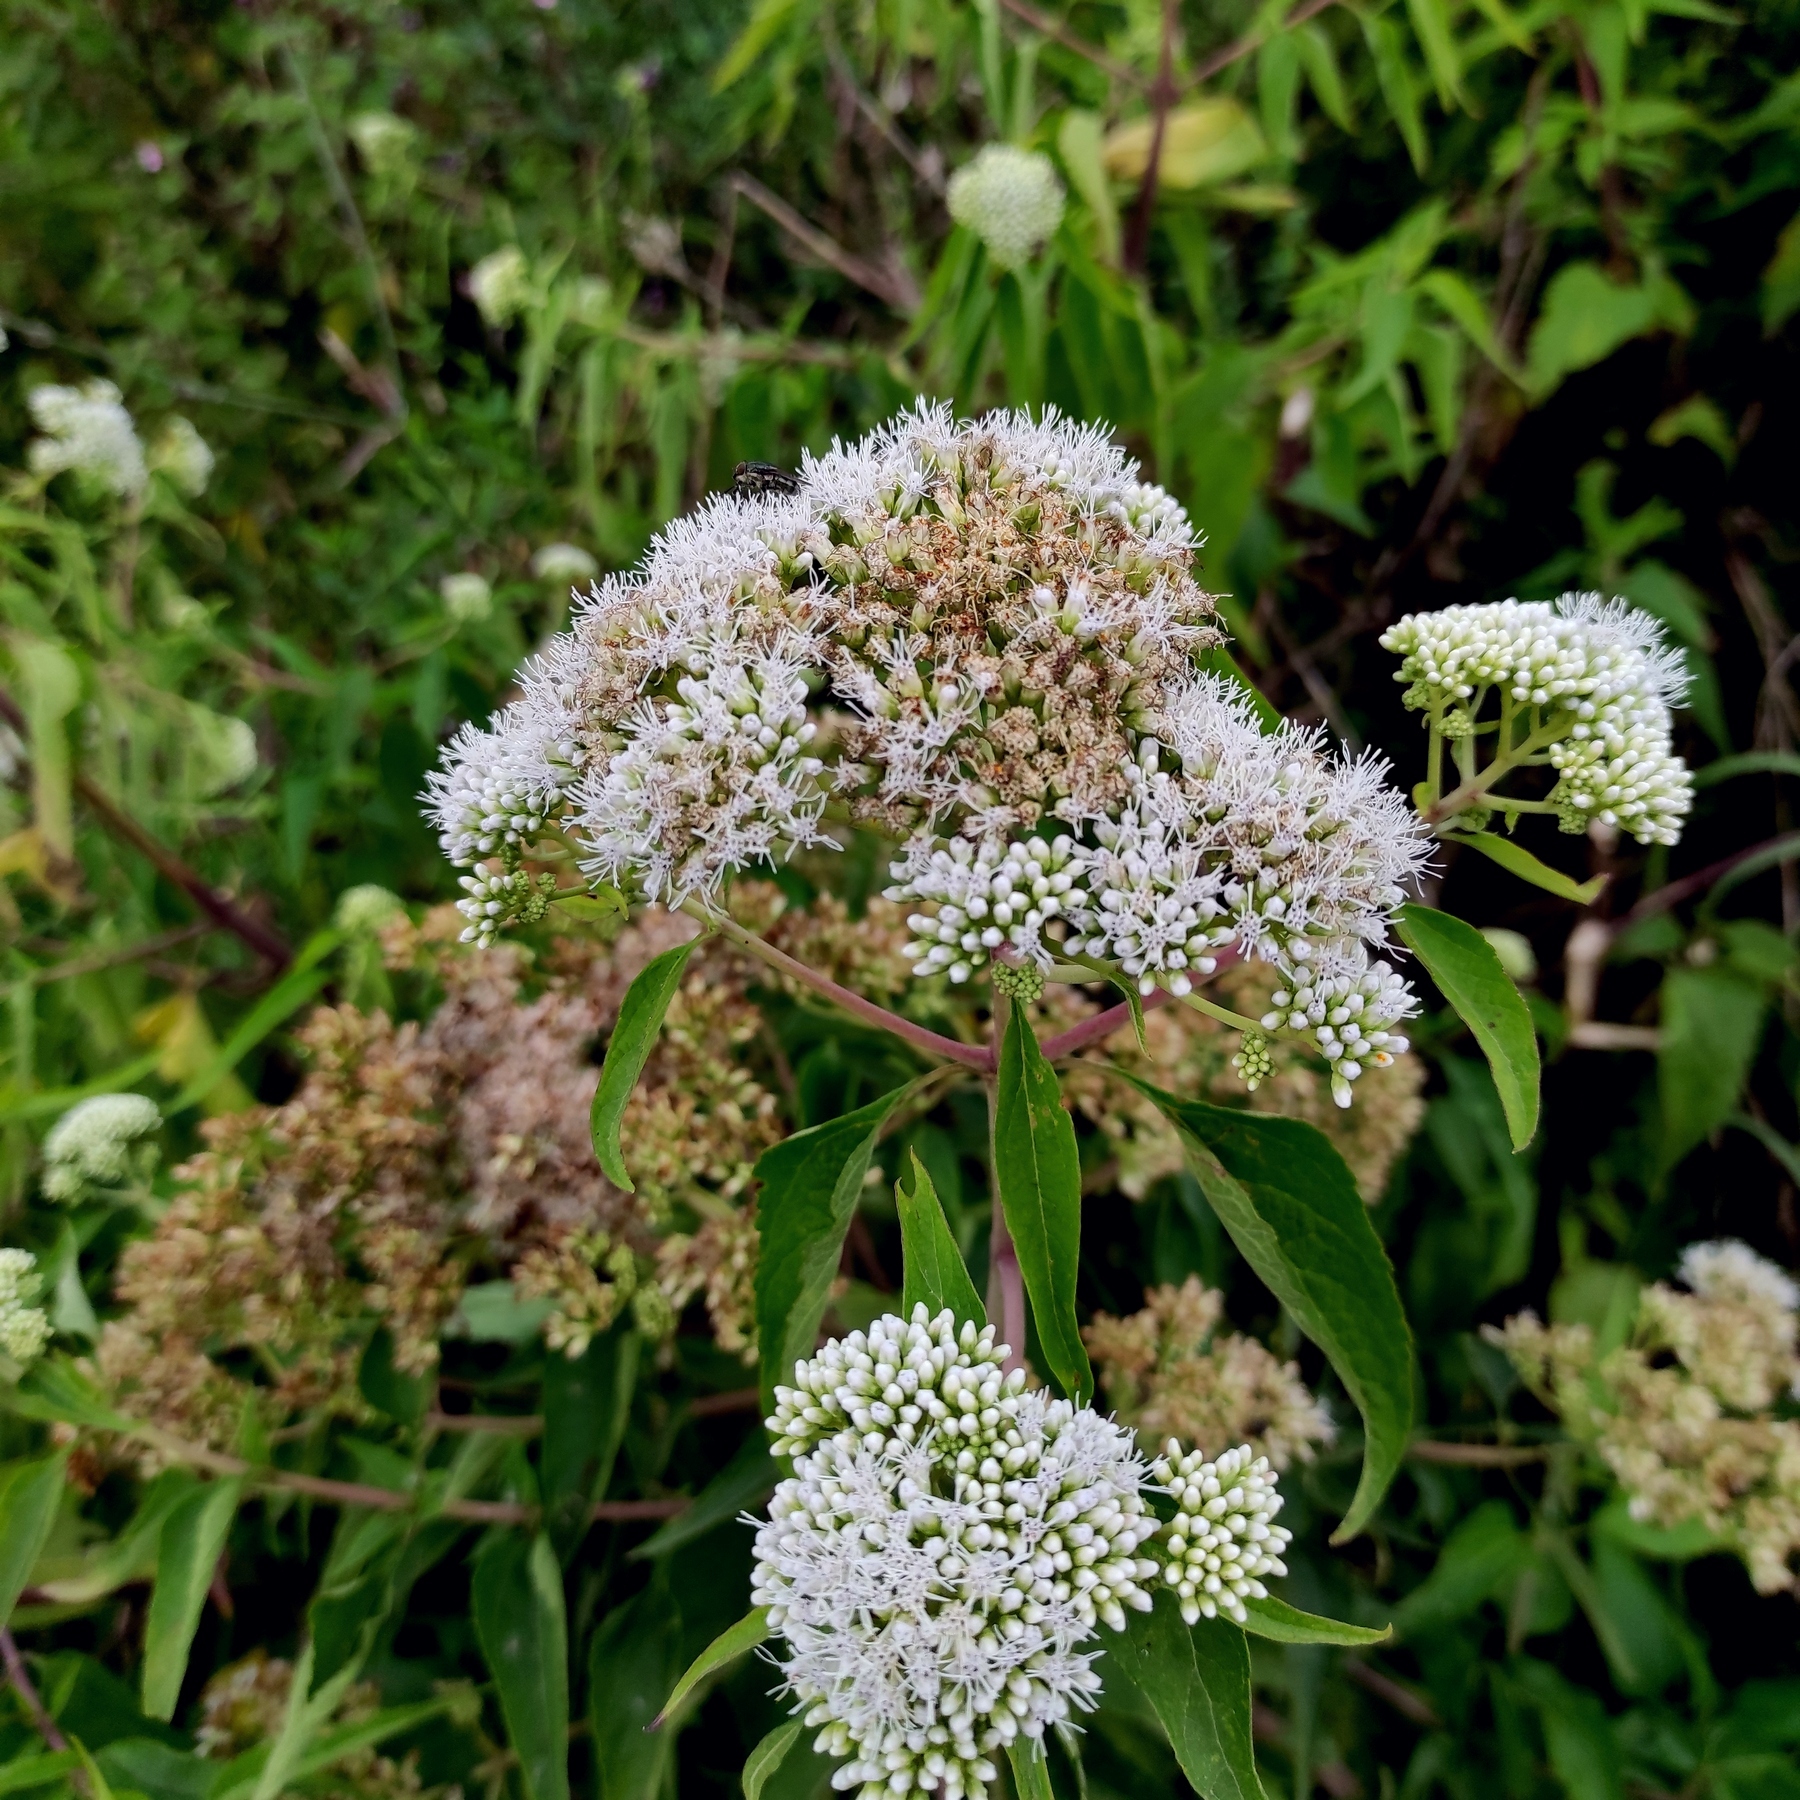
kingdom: Plantae
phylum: Tracheophyta
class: Magnoliopsida
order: Asterales
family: Asteraceae
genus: Austroeupatorium
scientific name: Austroeupatorium inulifolium
